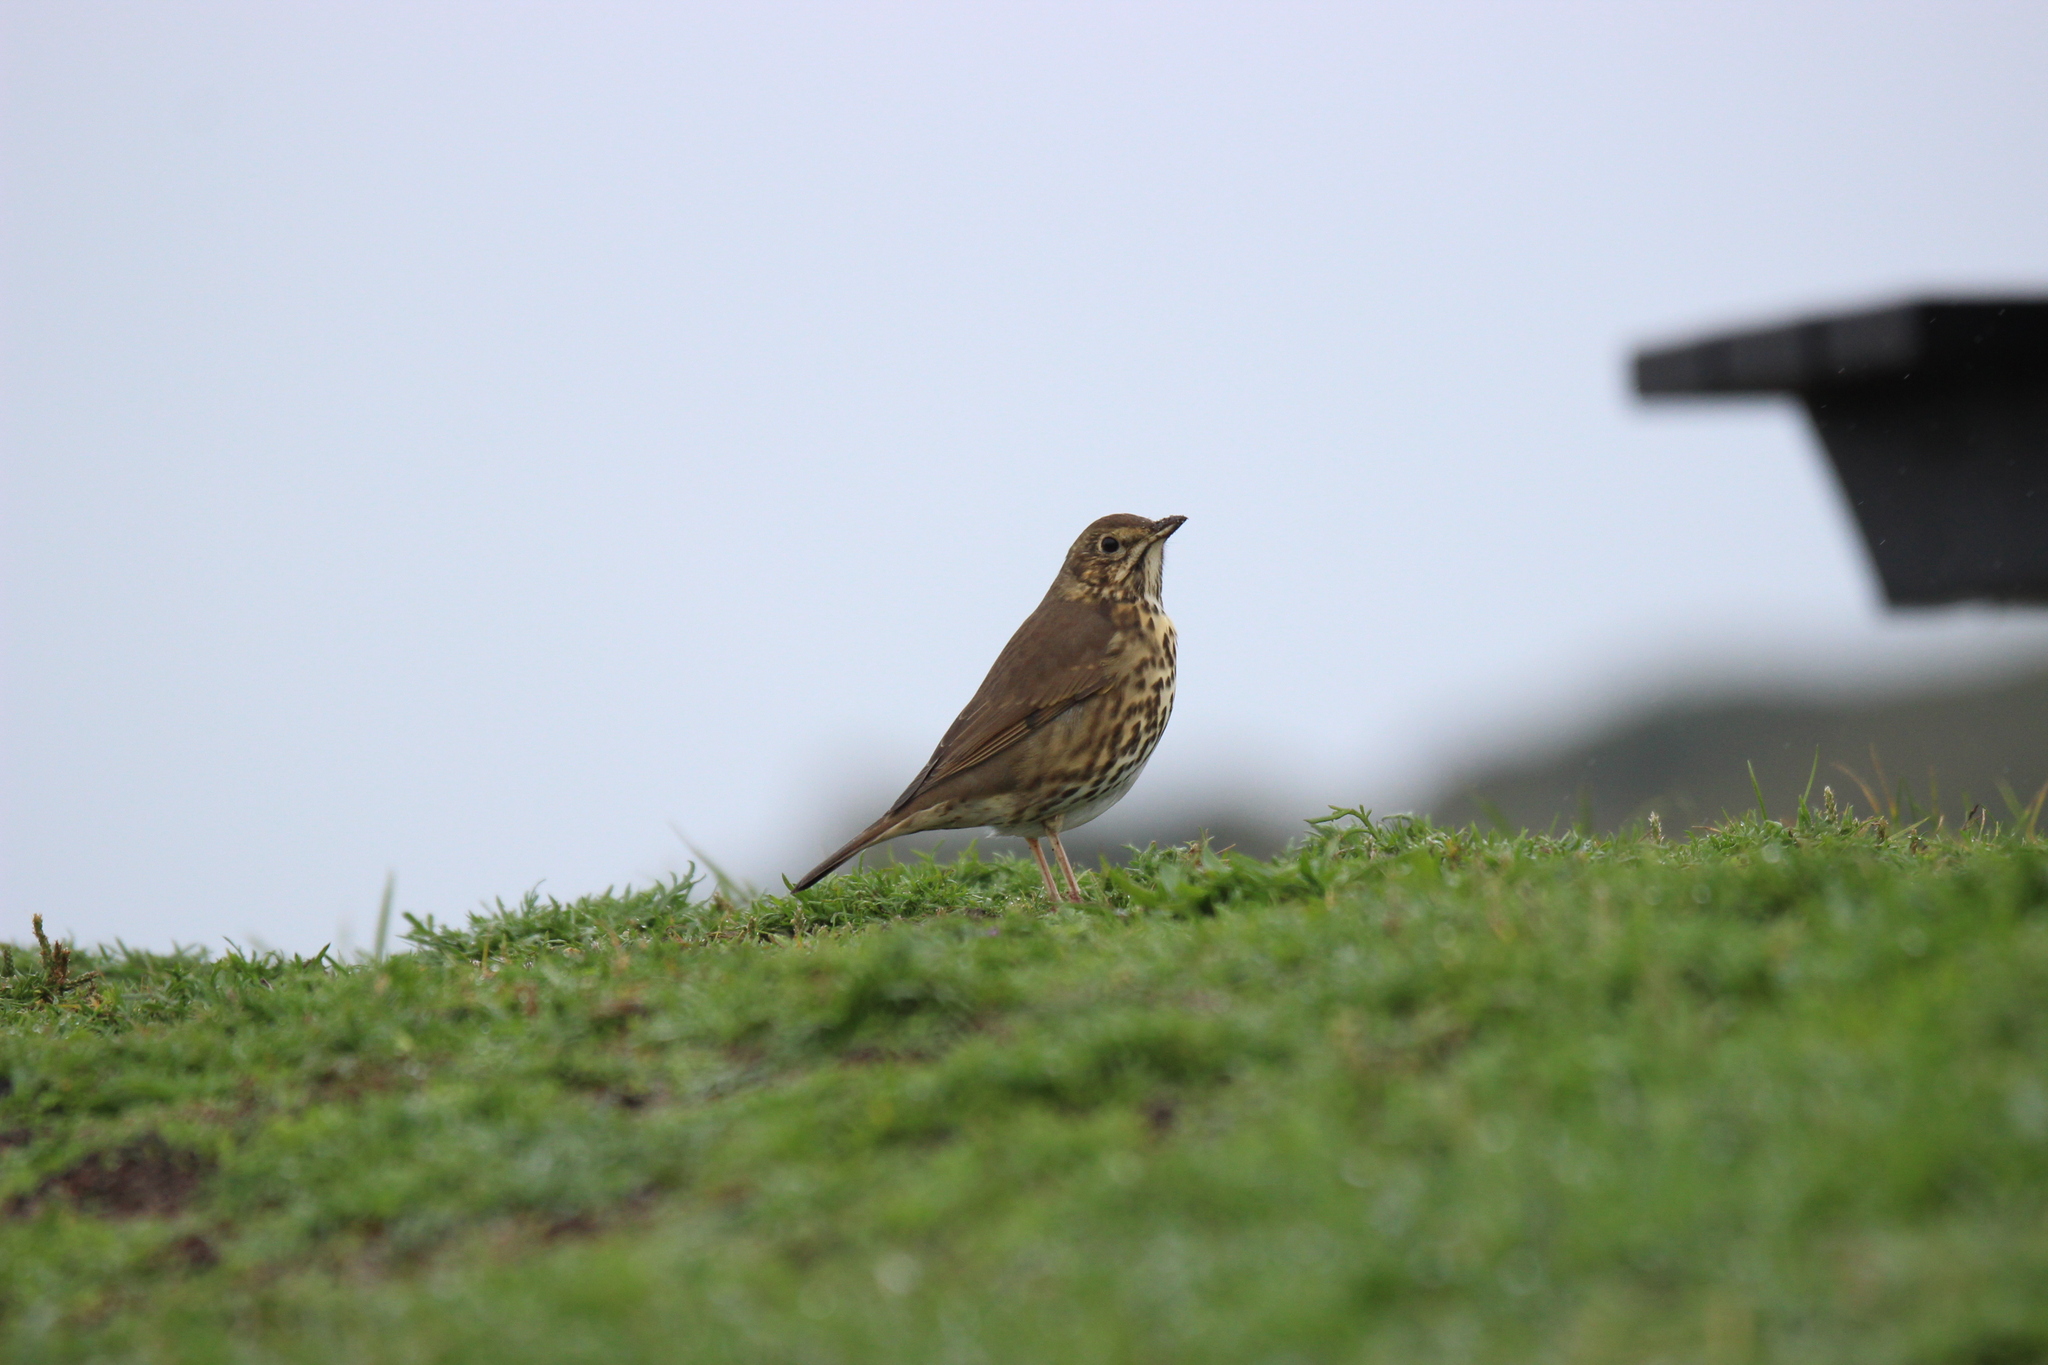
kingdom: Animalia
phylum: Chordata
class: Aves
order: Passeriformes
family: Turdidae
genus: Turdus
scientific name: Turdus philomelos
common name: Song thrush
